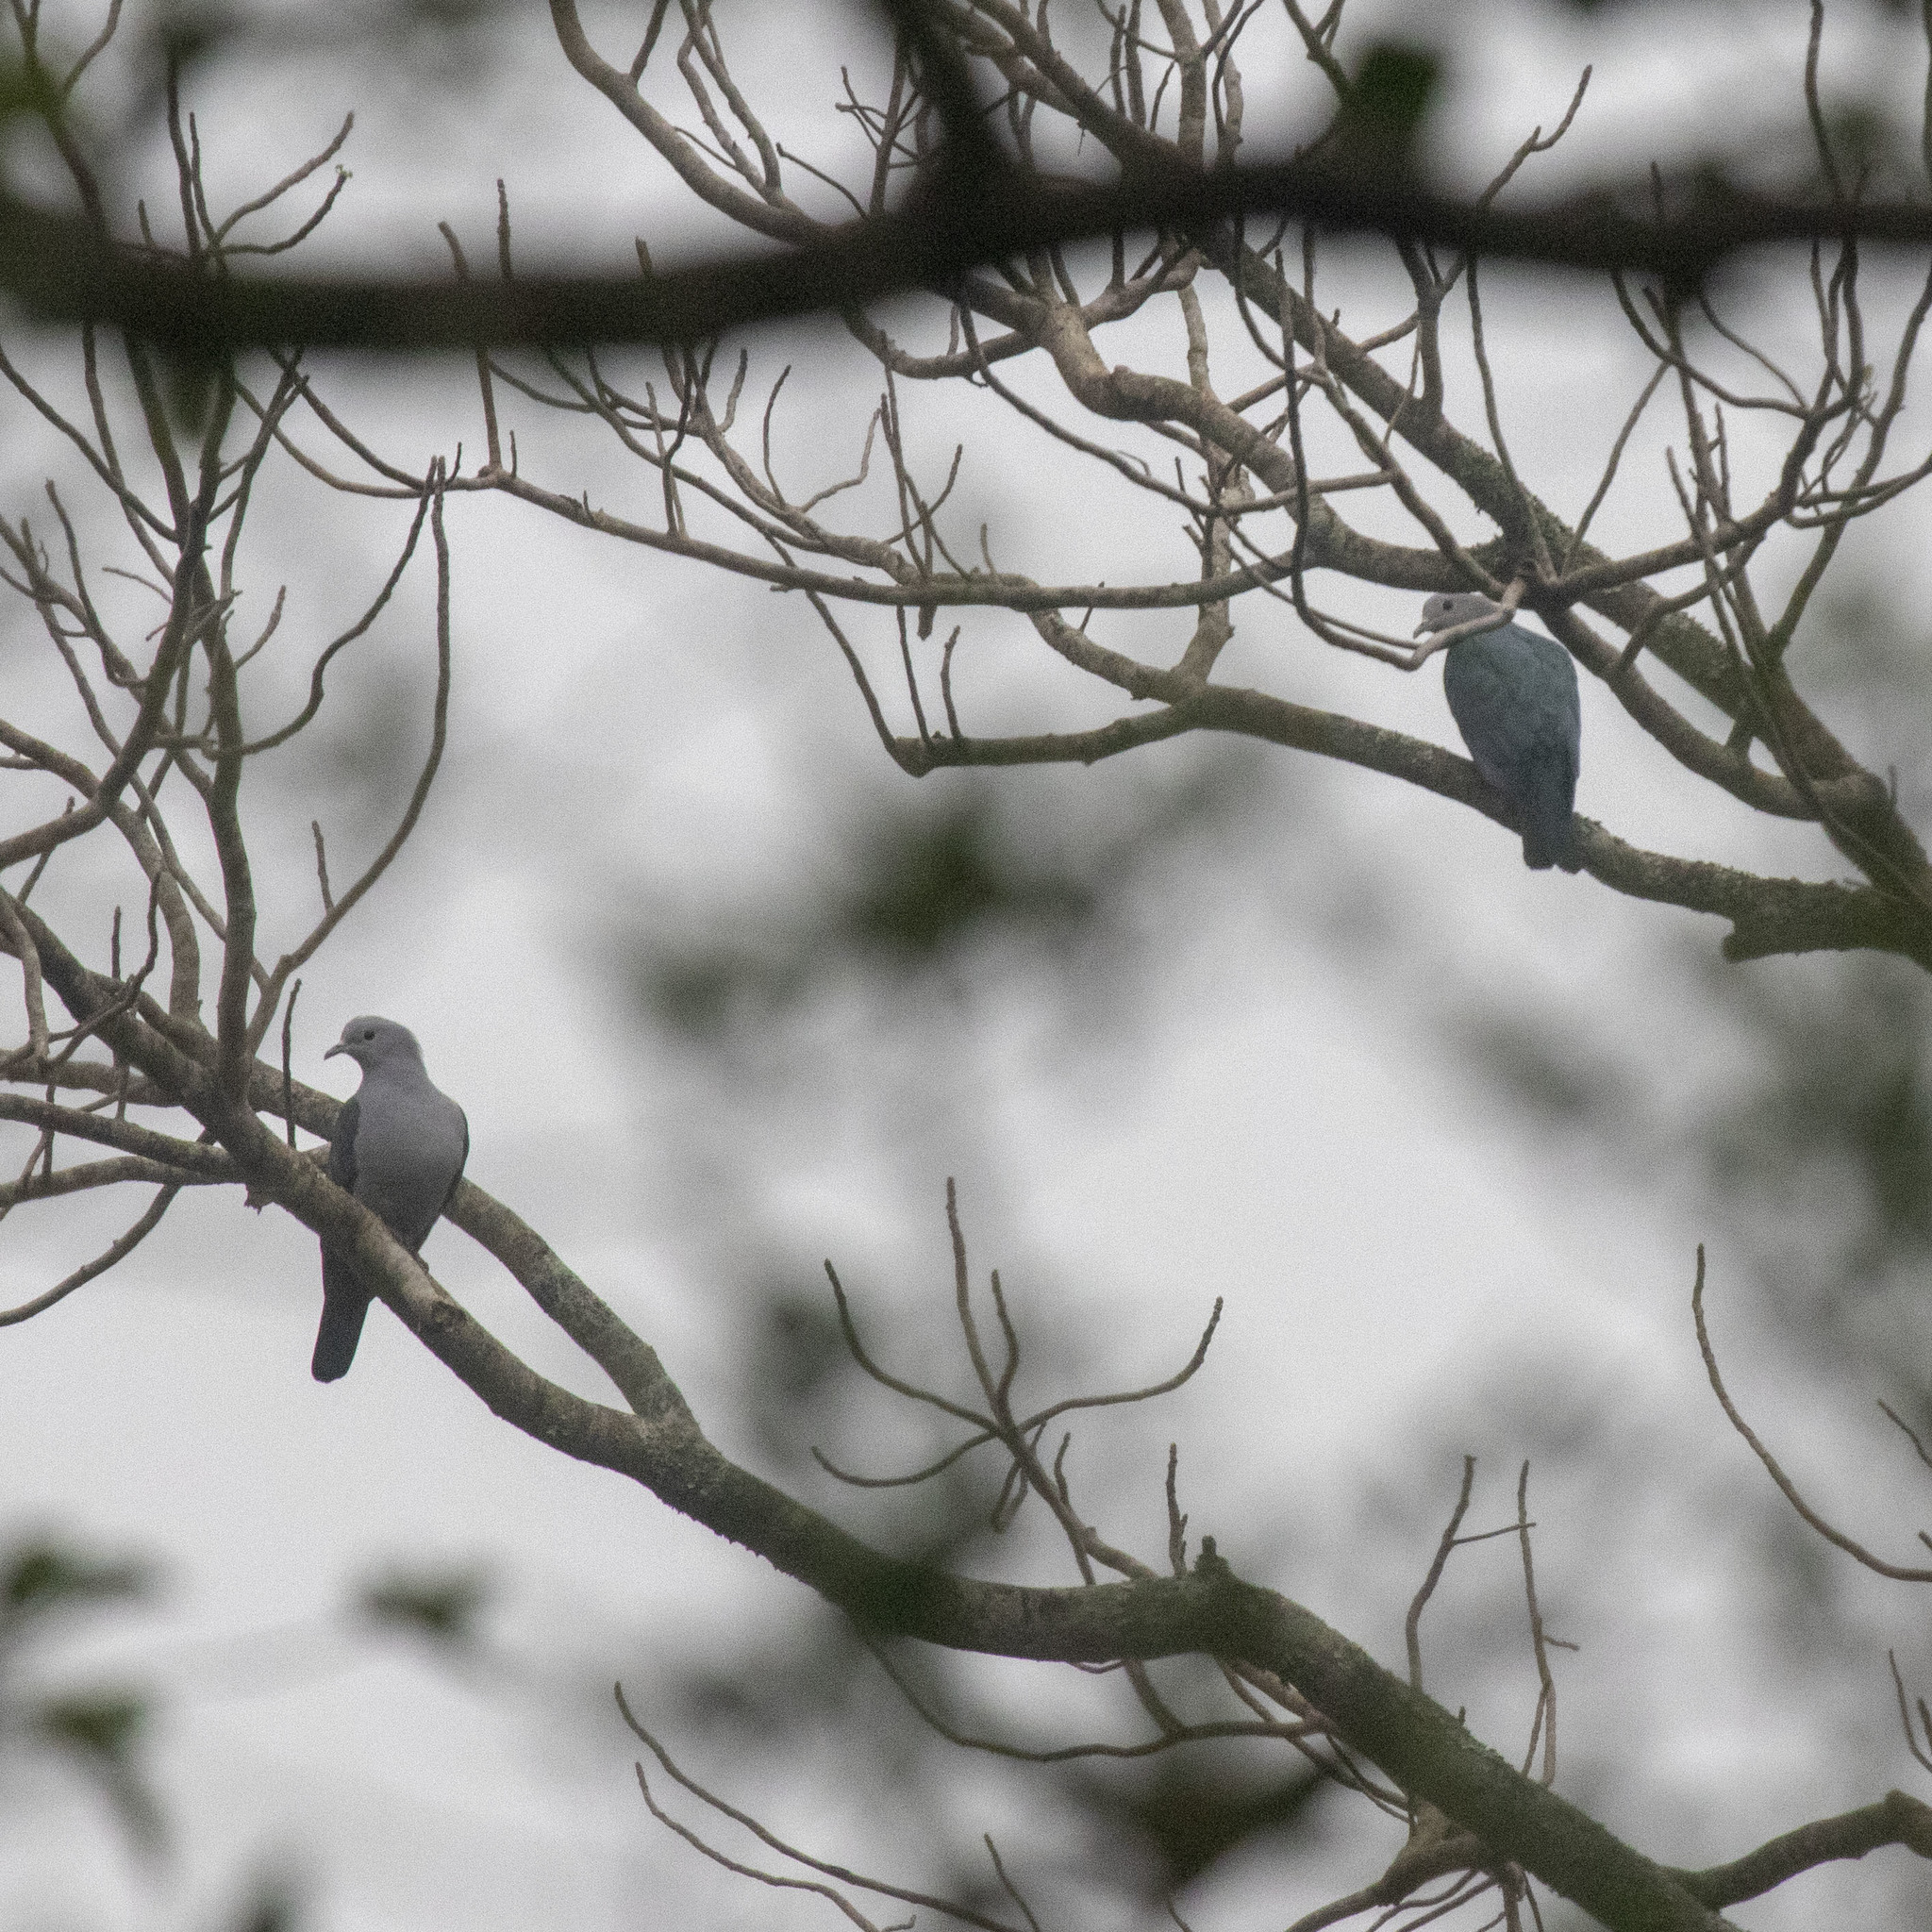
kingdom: Animalia
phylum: Chordata
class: Aves
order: Columbiformes
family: Columbidae
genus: Ducula
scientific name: Ducula aenea
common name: Green imperial pigeon
